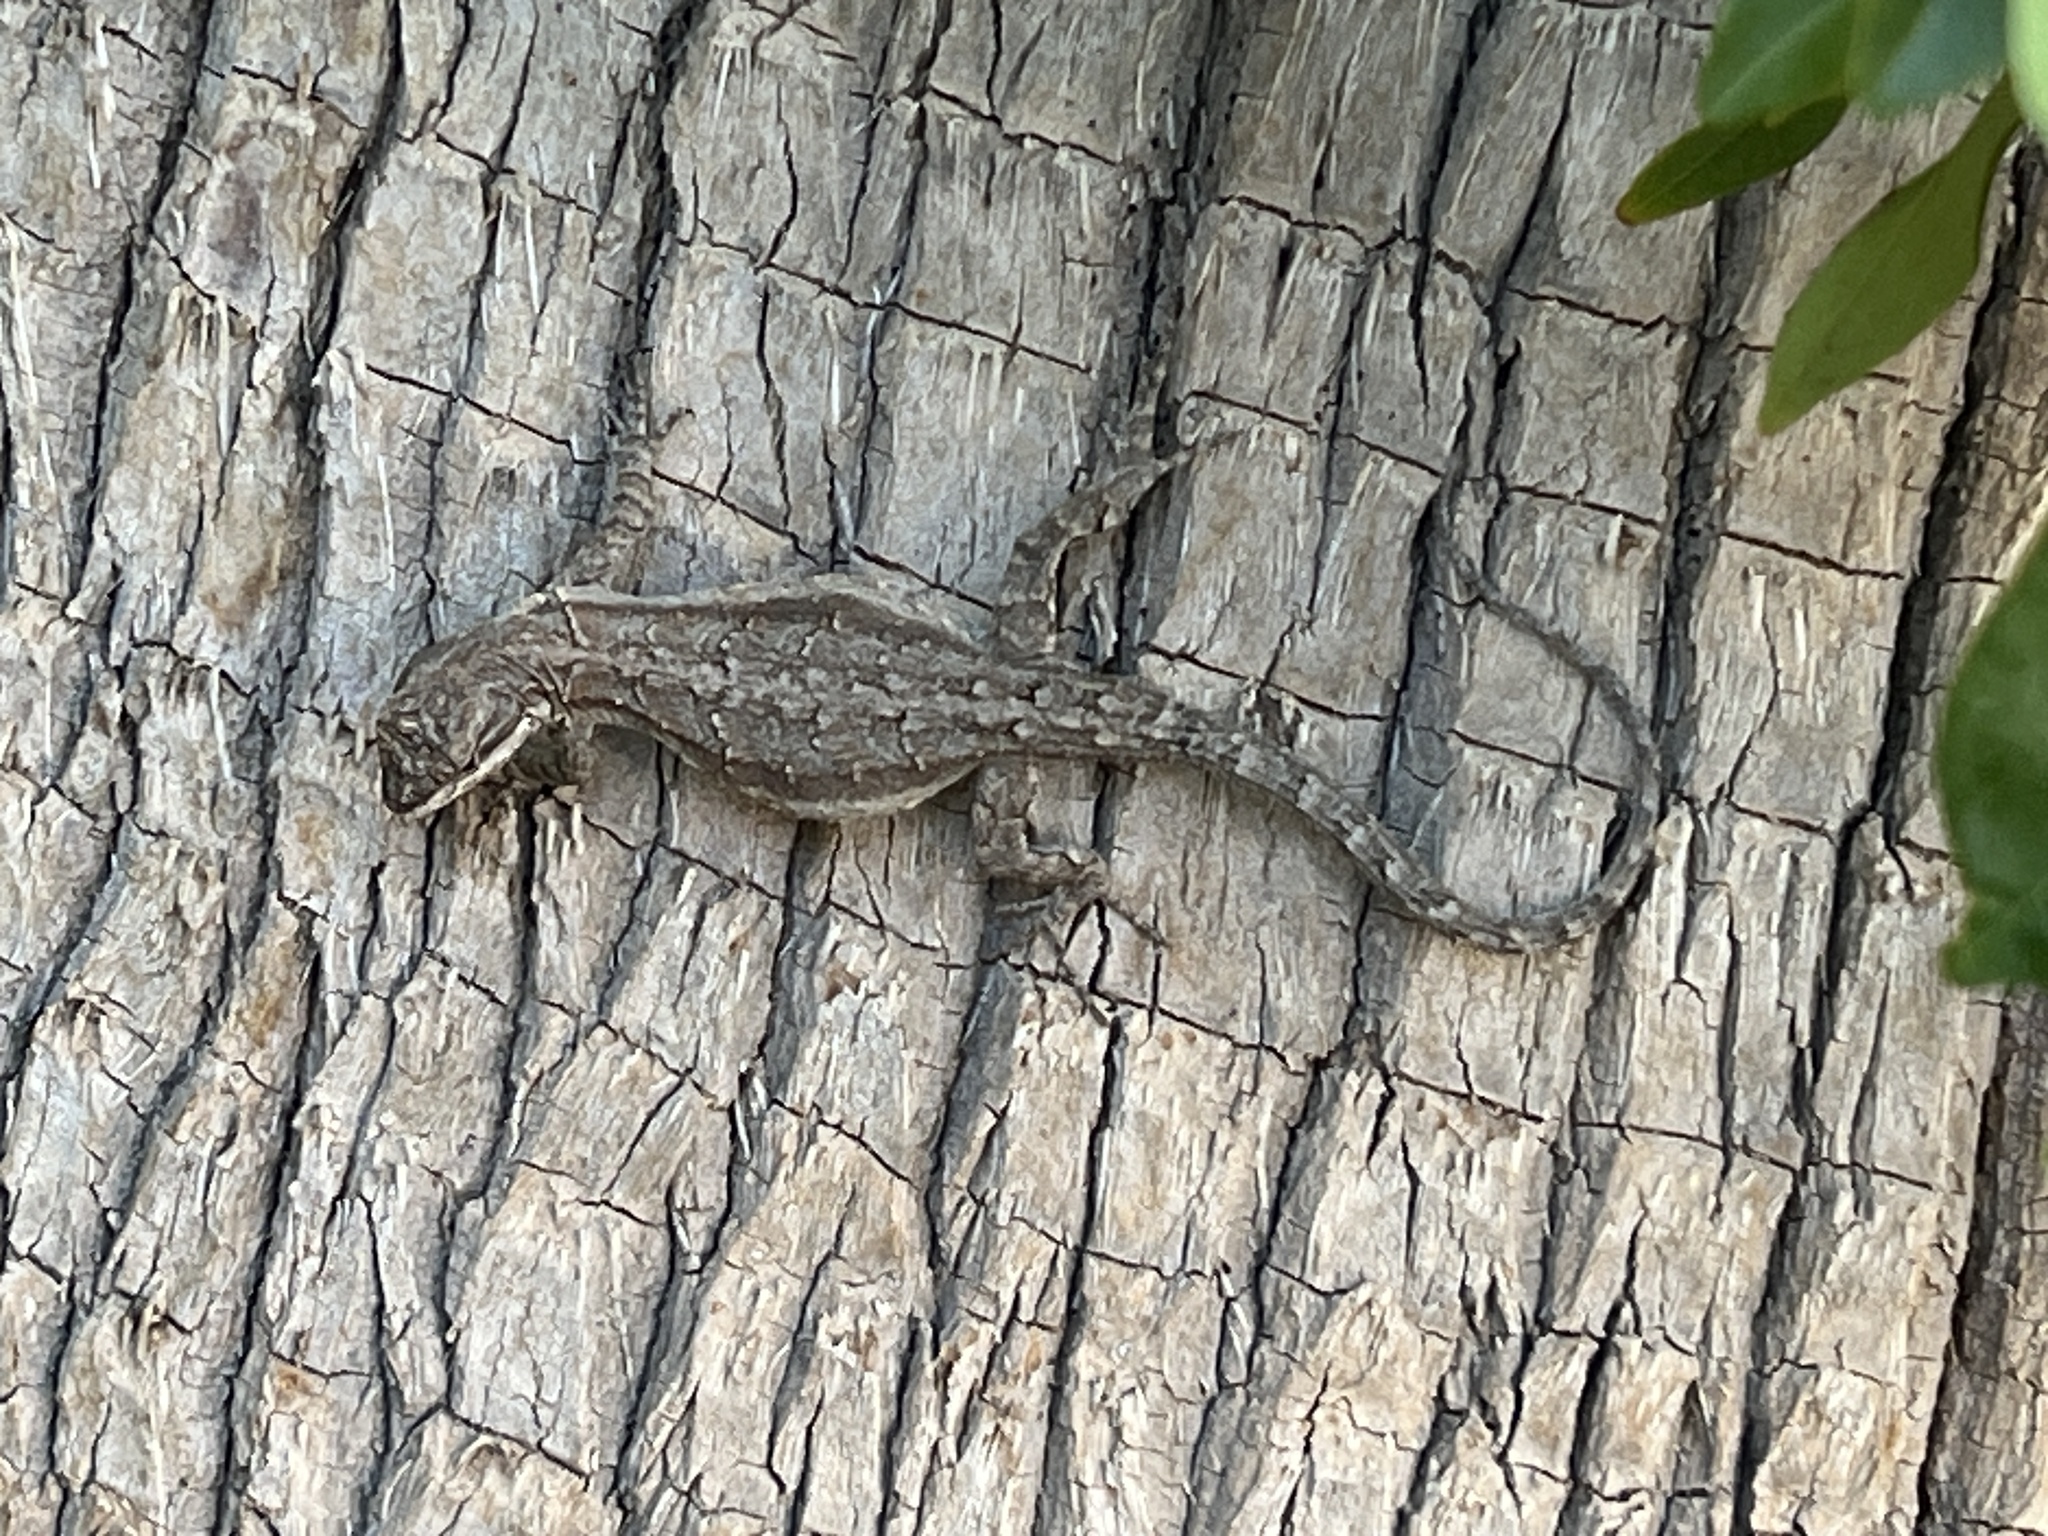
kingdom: Animalia
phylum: Chordata
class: Squamata
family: Phrynosomatidae
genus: Urosaurus
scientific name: Urosaurus ornatus
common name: Ornate tree lizard
